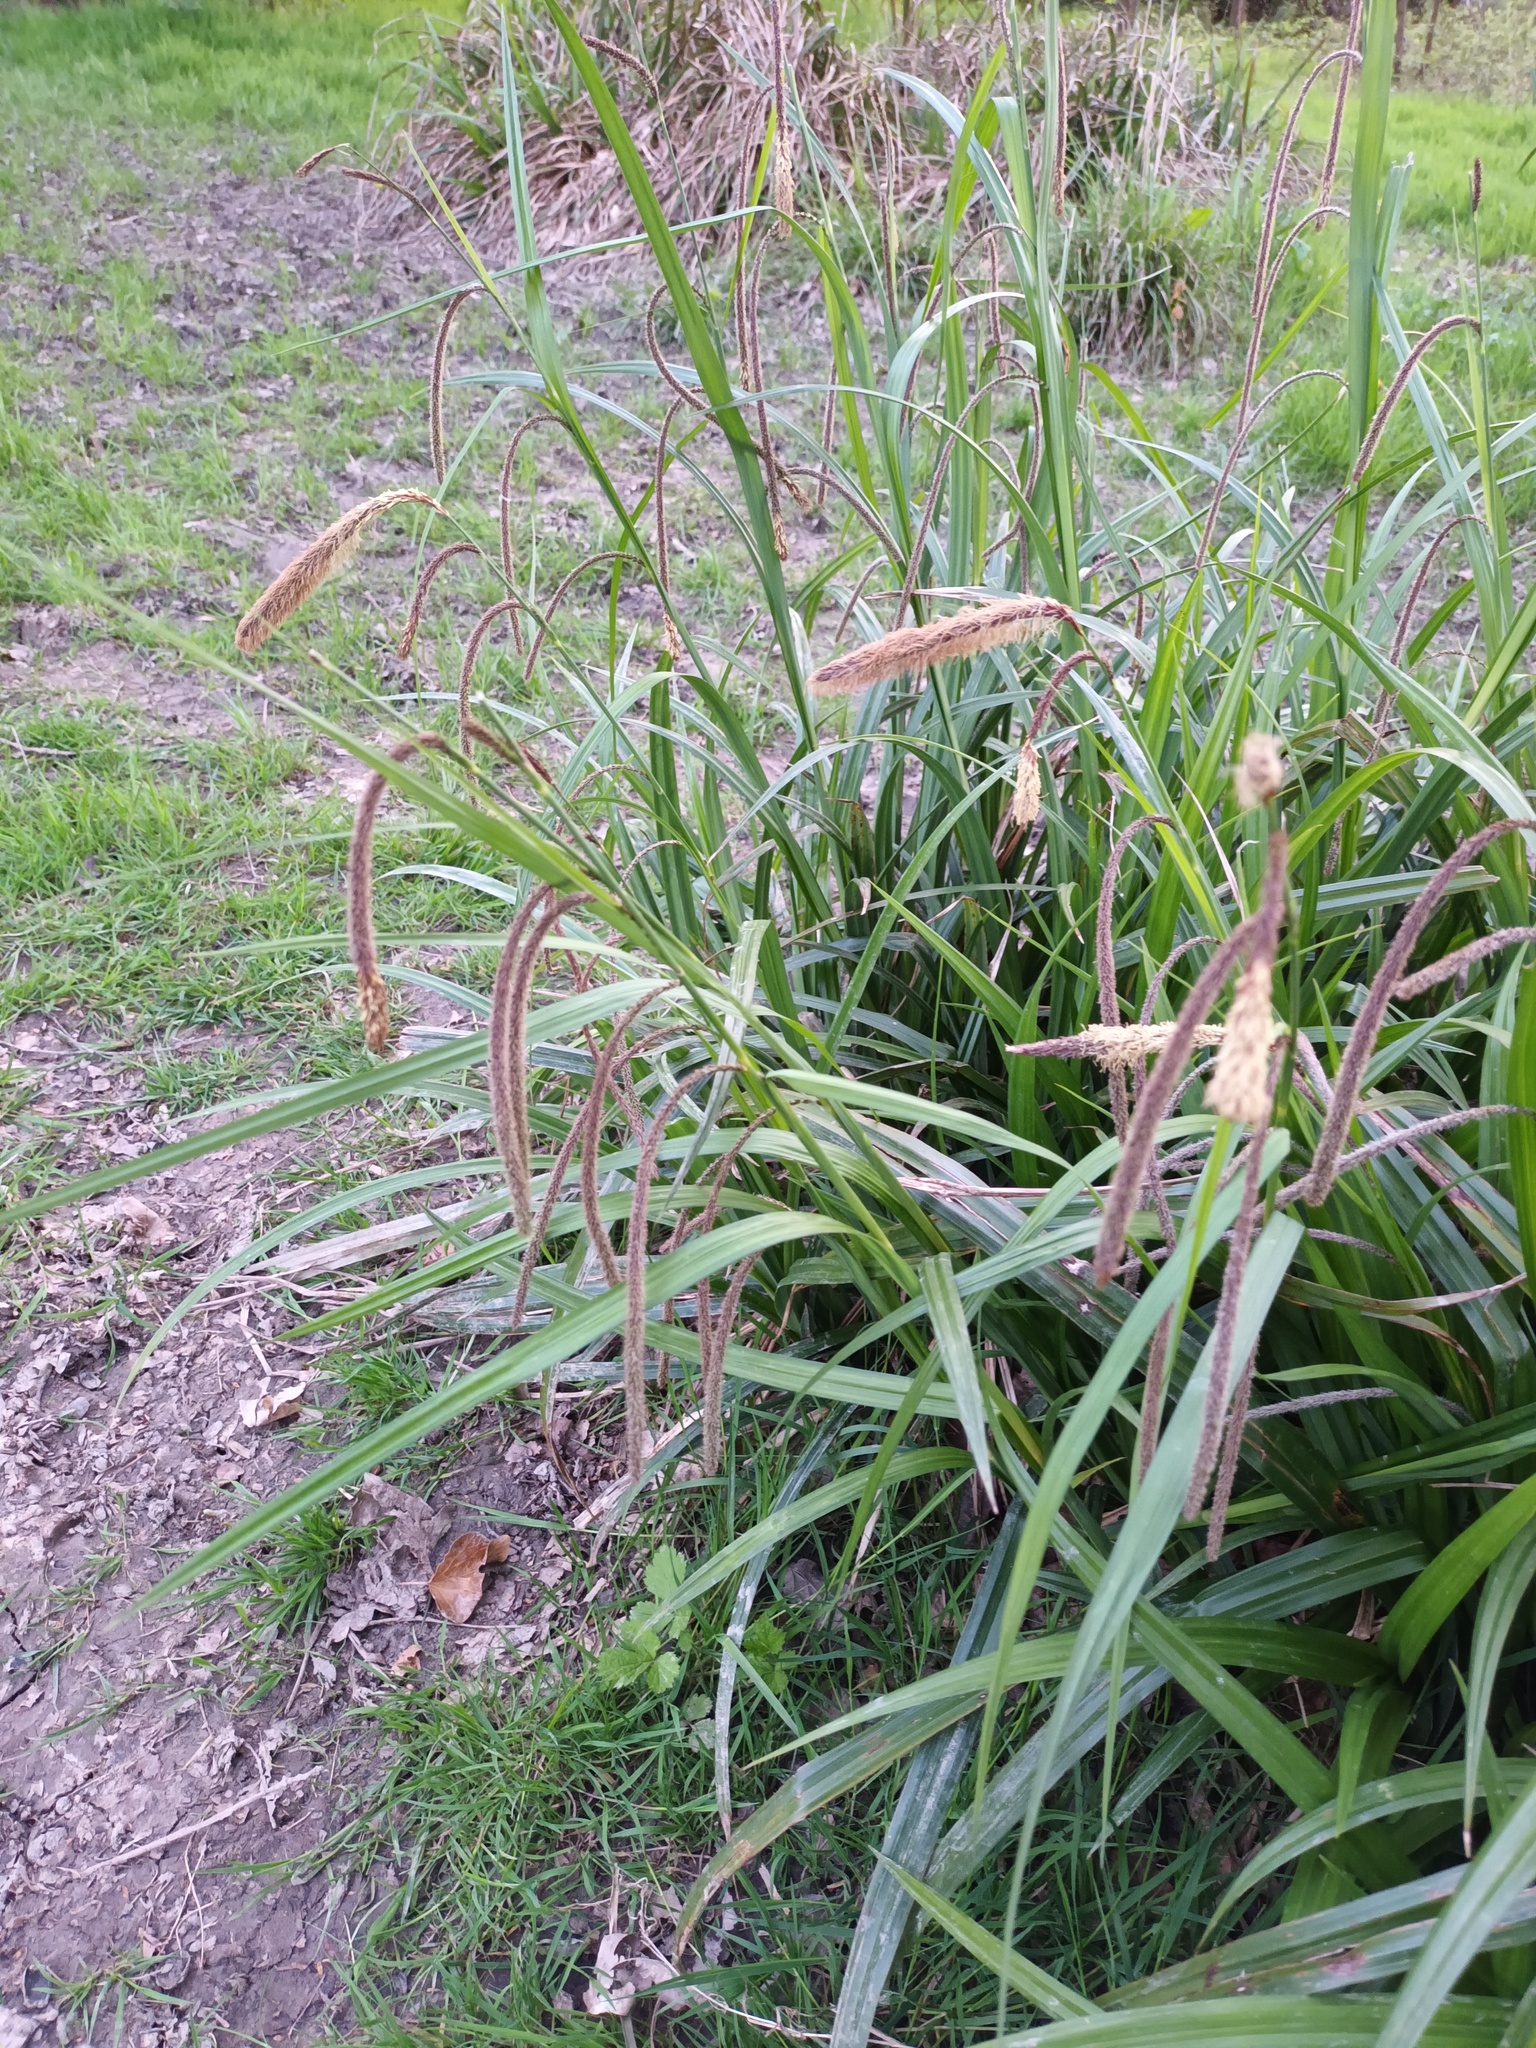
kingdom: Plantae
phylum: Tracheophyta
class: Liliopsida
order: Poales
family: Cyperaceae
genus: Carex
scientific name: Carex pendula
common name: Pendulous sedge
